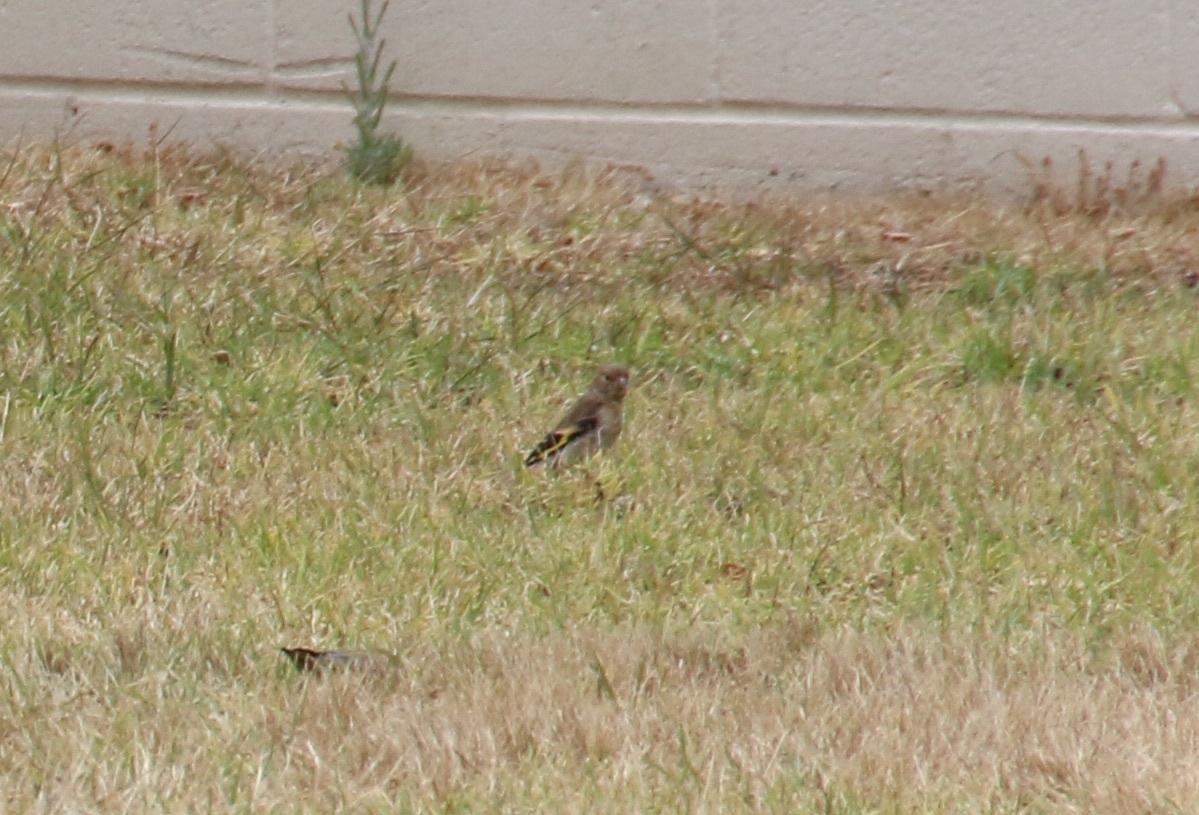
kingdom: Animalia
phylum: Chordata
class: Aves
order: Passeriformes
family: Fringillidae
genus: Carduelis
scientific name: Carduelis carduelis
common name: European goldfinch
